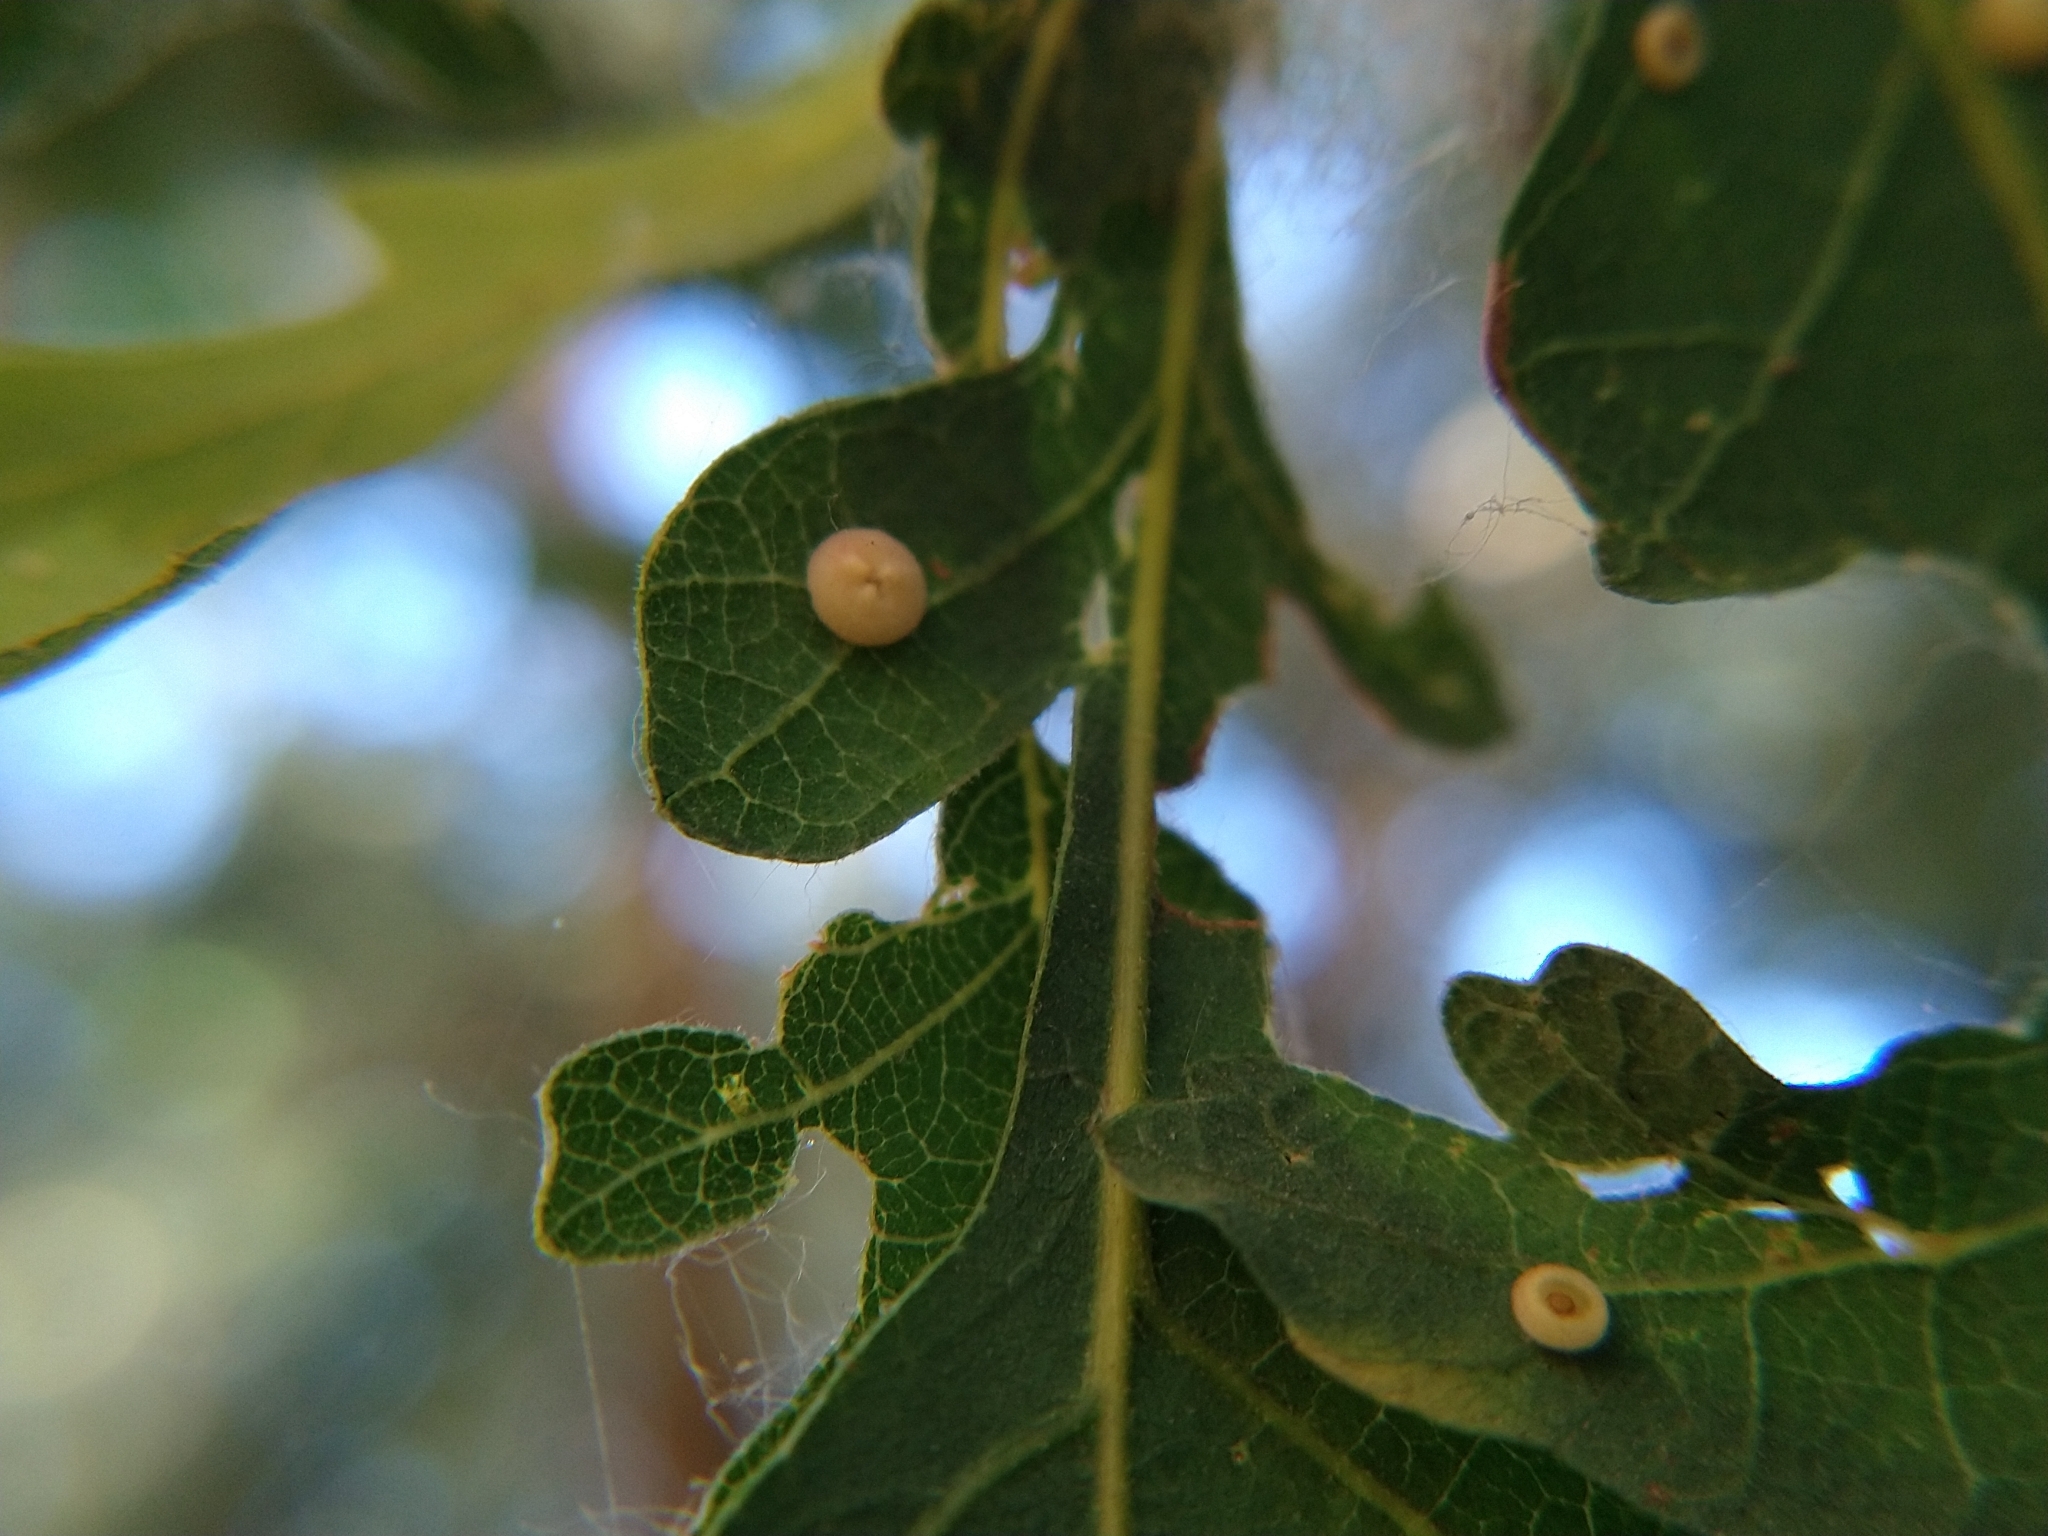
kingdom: Animalia
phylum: Arthropoda
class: Insecta
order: Hymenoptera
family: Cynipidae
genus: Andricus
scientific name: Andricus
